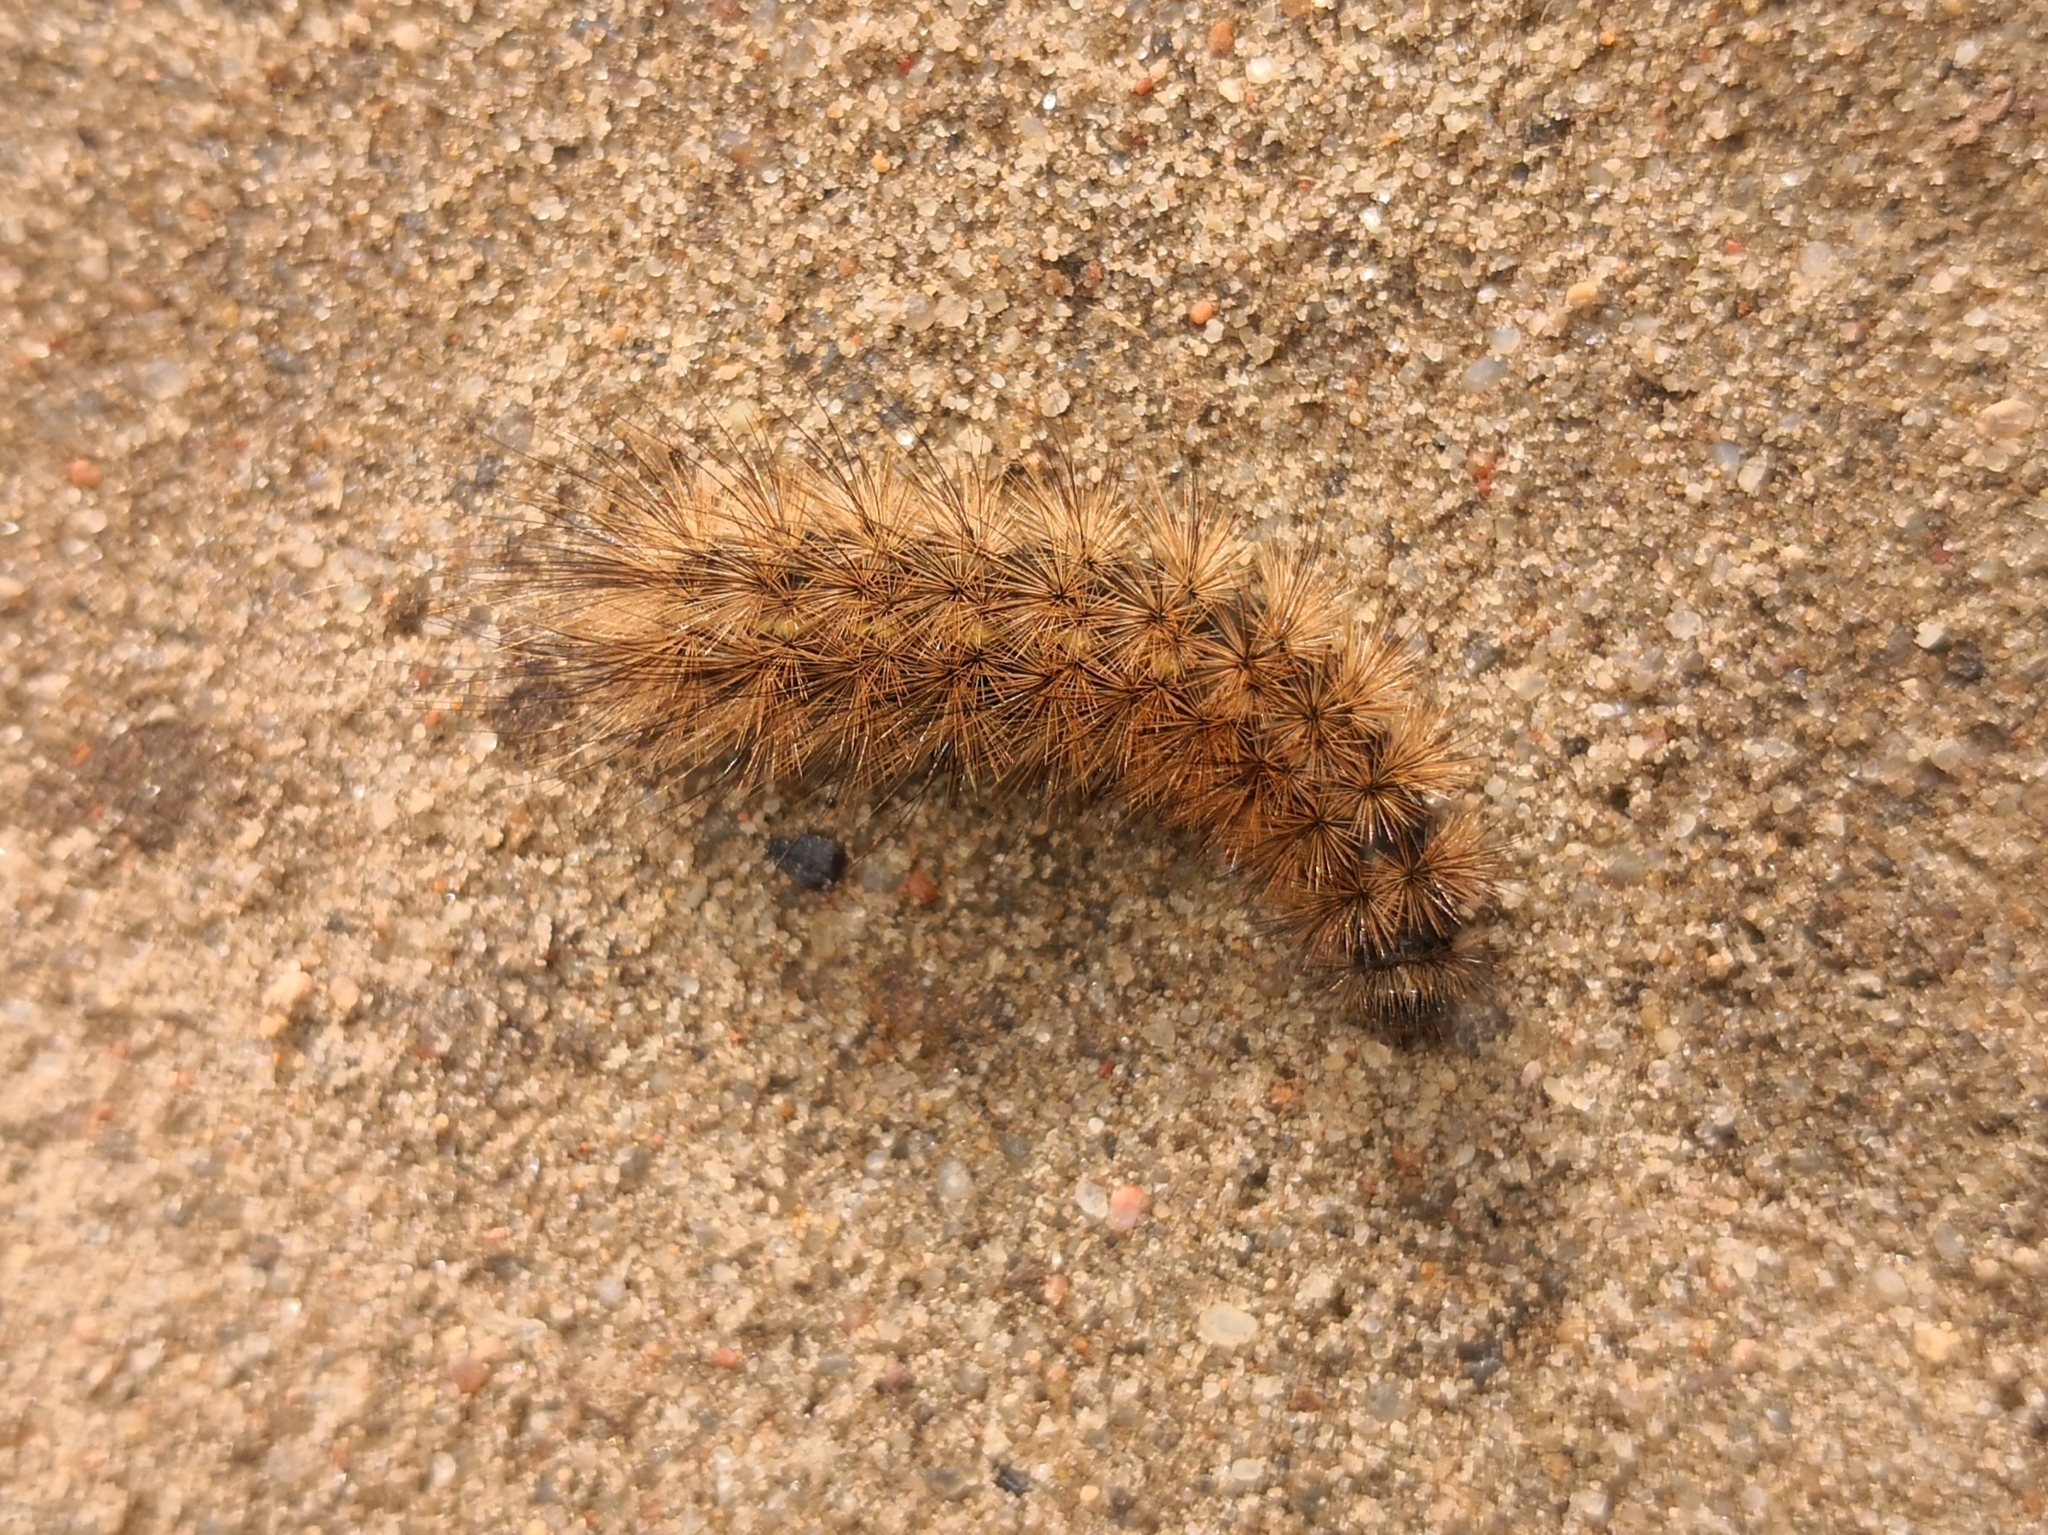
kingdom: Animalia
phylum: Arthropoda
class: Insecta
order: Lepidoptera
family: Erebidae
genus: Phragmatobia
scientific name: Phragmatobia fuliginosa
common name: Ruby tiger
